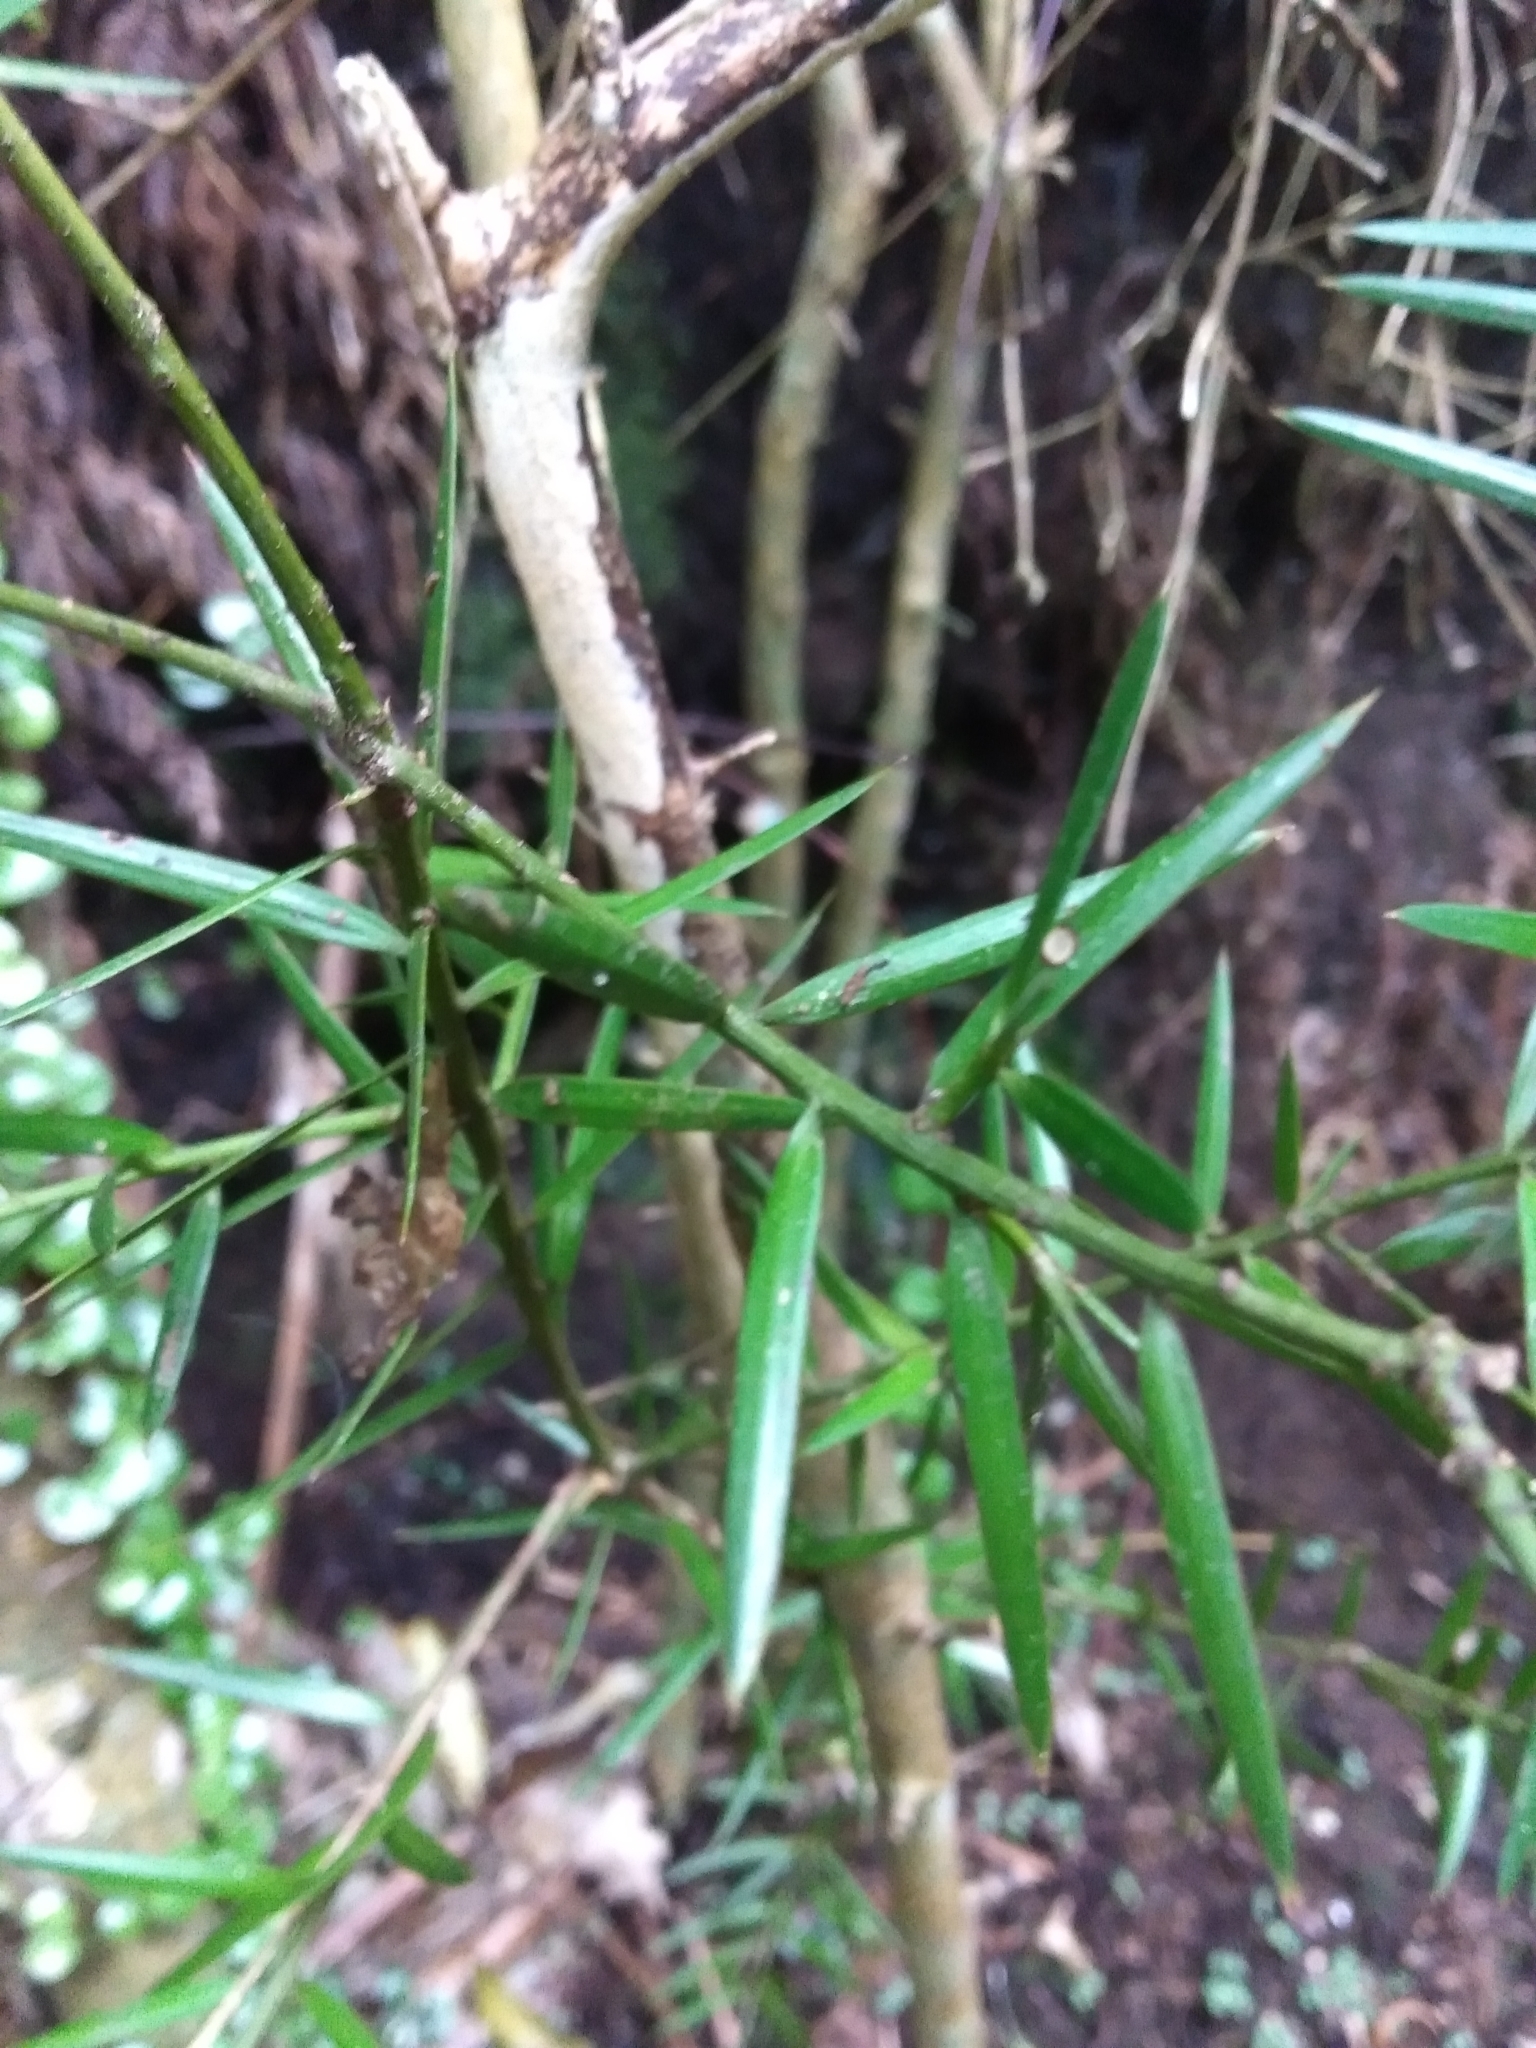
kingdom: Plantae
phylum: Tracheophyta
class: Pinopsida
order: Pinales
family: Podocarpaceae
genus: Podocarpus
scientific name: Podocarpus totara
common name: Totara
